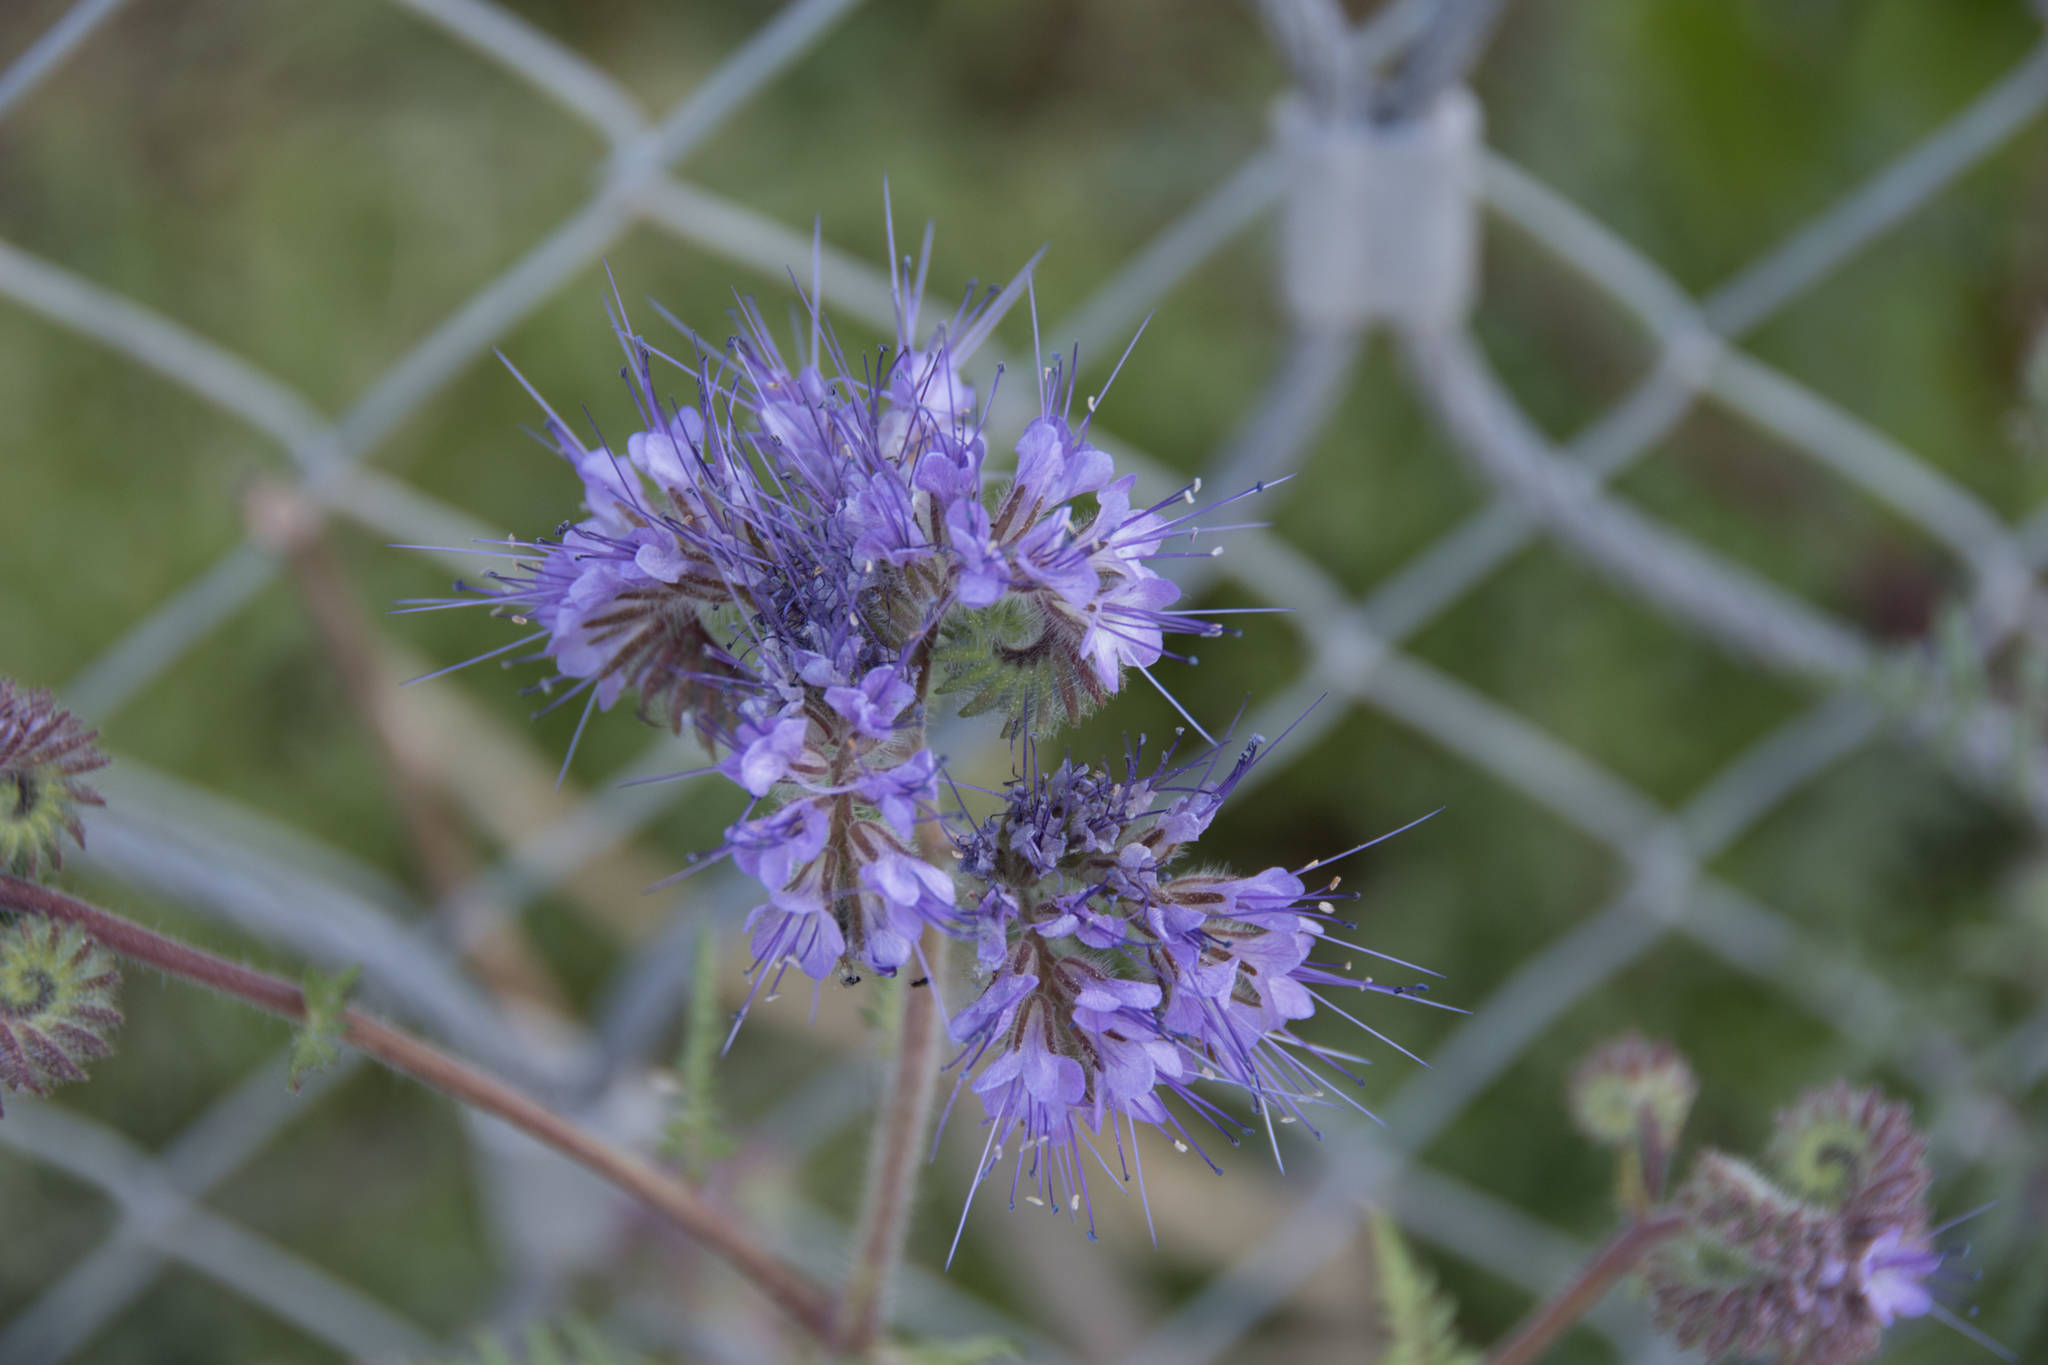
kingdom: Plantae
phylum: Tracheophyta
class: Magnoliopsida
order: Boraginales
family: Hydrophyllaceae
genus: Phacelia
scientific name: Phacelia tanacetifolia
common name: Phacelia
